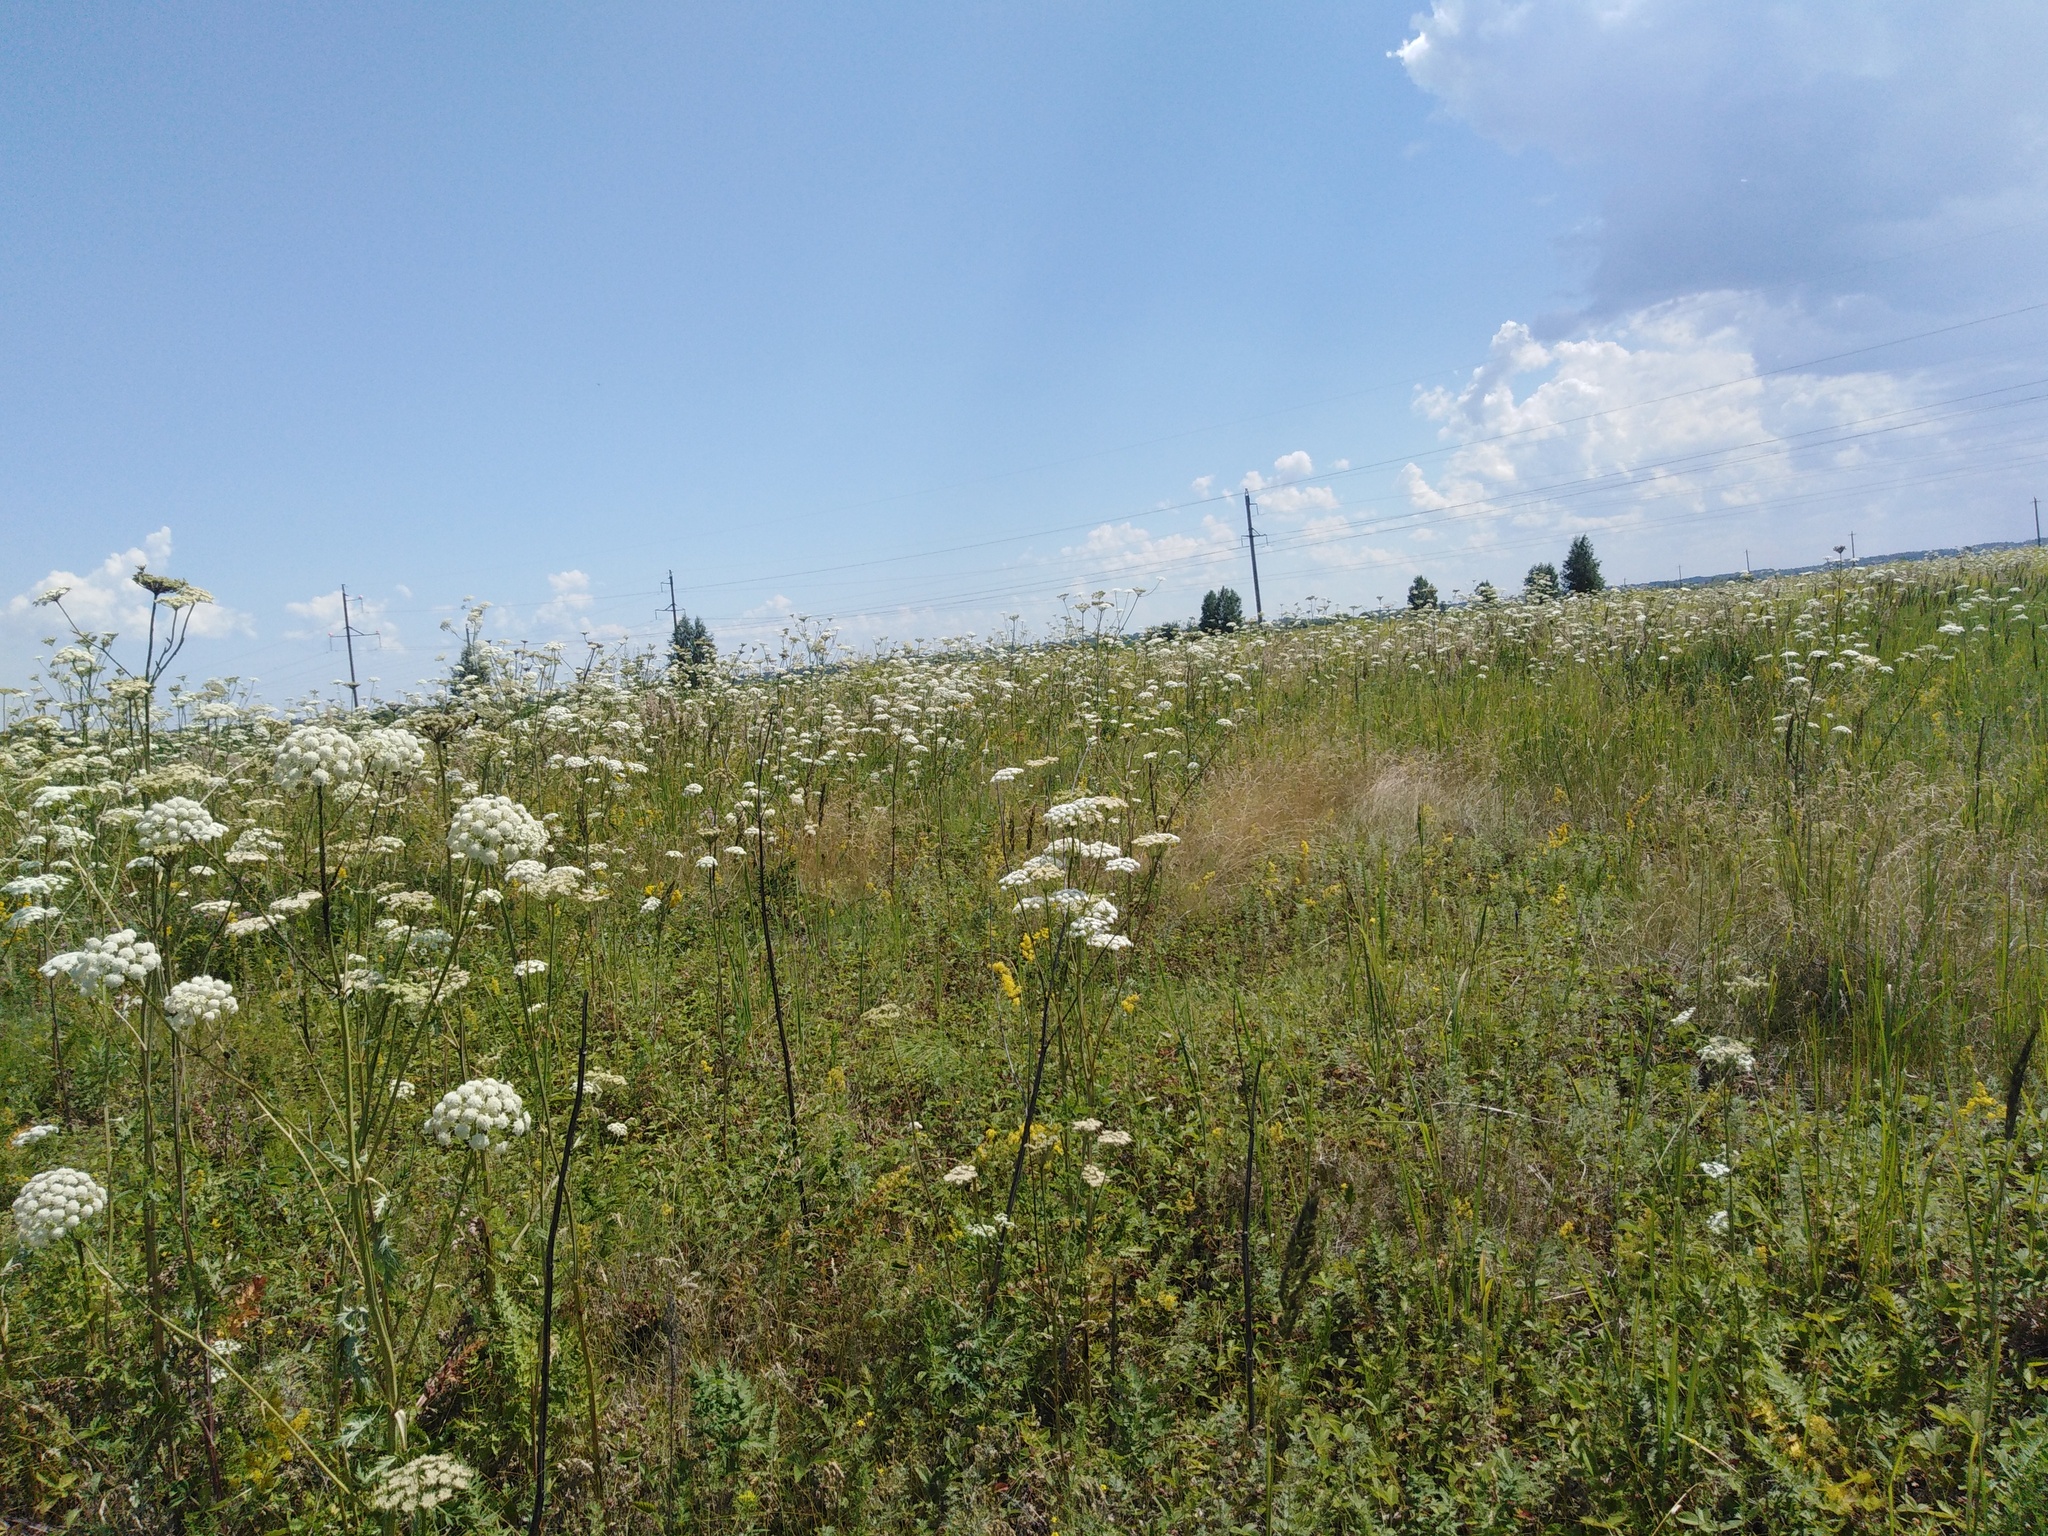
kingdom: Plantae
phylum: Tracheophyta
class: Magnoliopsida
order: Apiales
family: Apiaceae
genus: Seseli
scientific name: Seseli libanotis
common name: Mooncarrot
